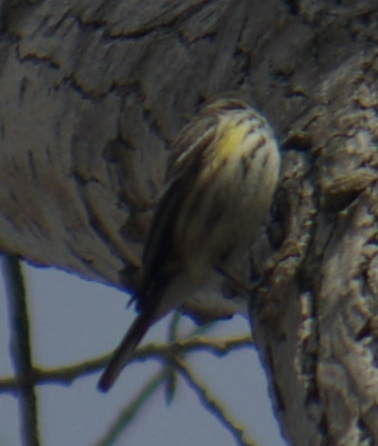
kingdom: Animalia
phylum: Chordata
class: Aves
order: Passeriformes
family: Parulidae
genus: Setophaga
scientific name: Setophaga coronata
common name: Myrtle warbler
